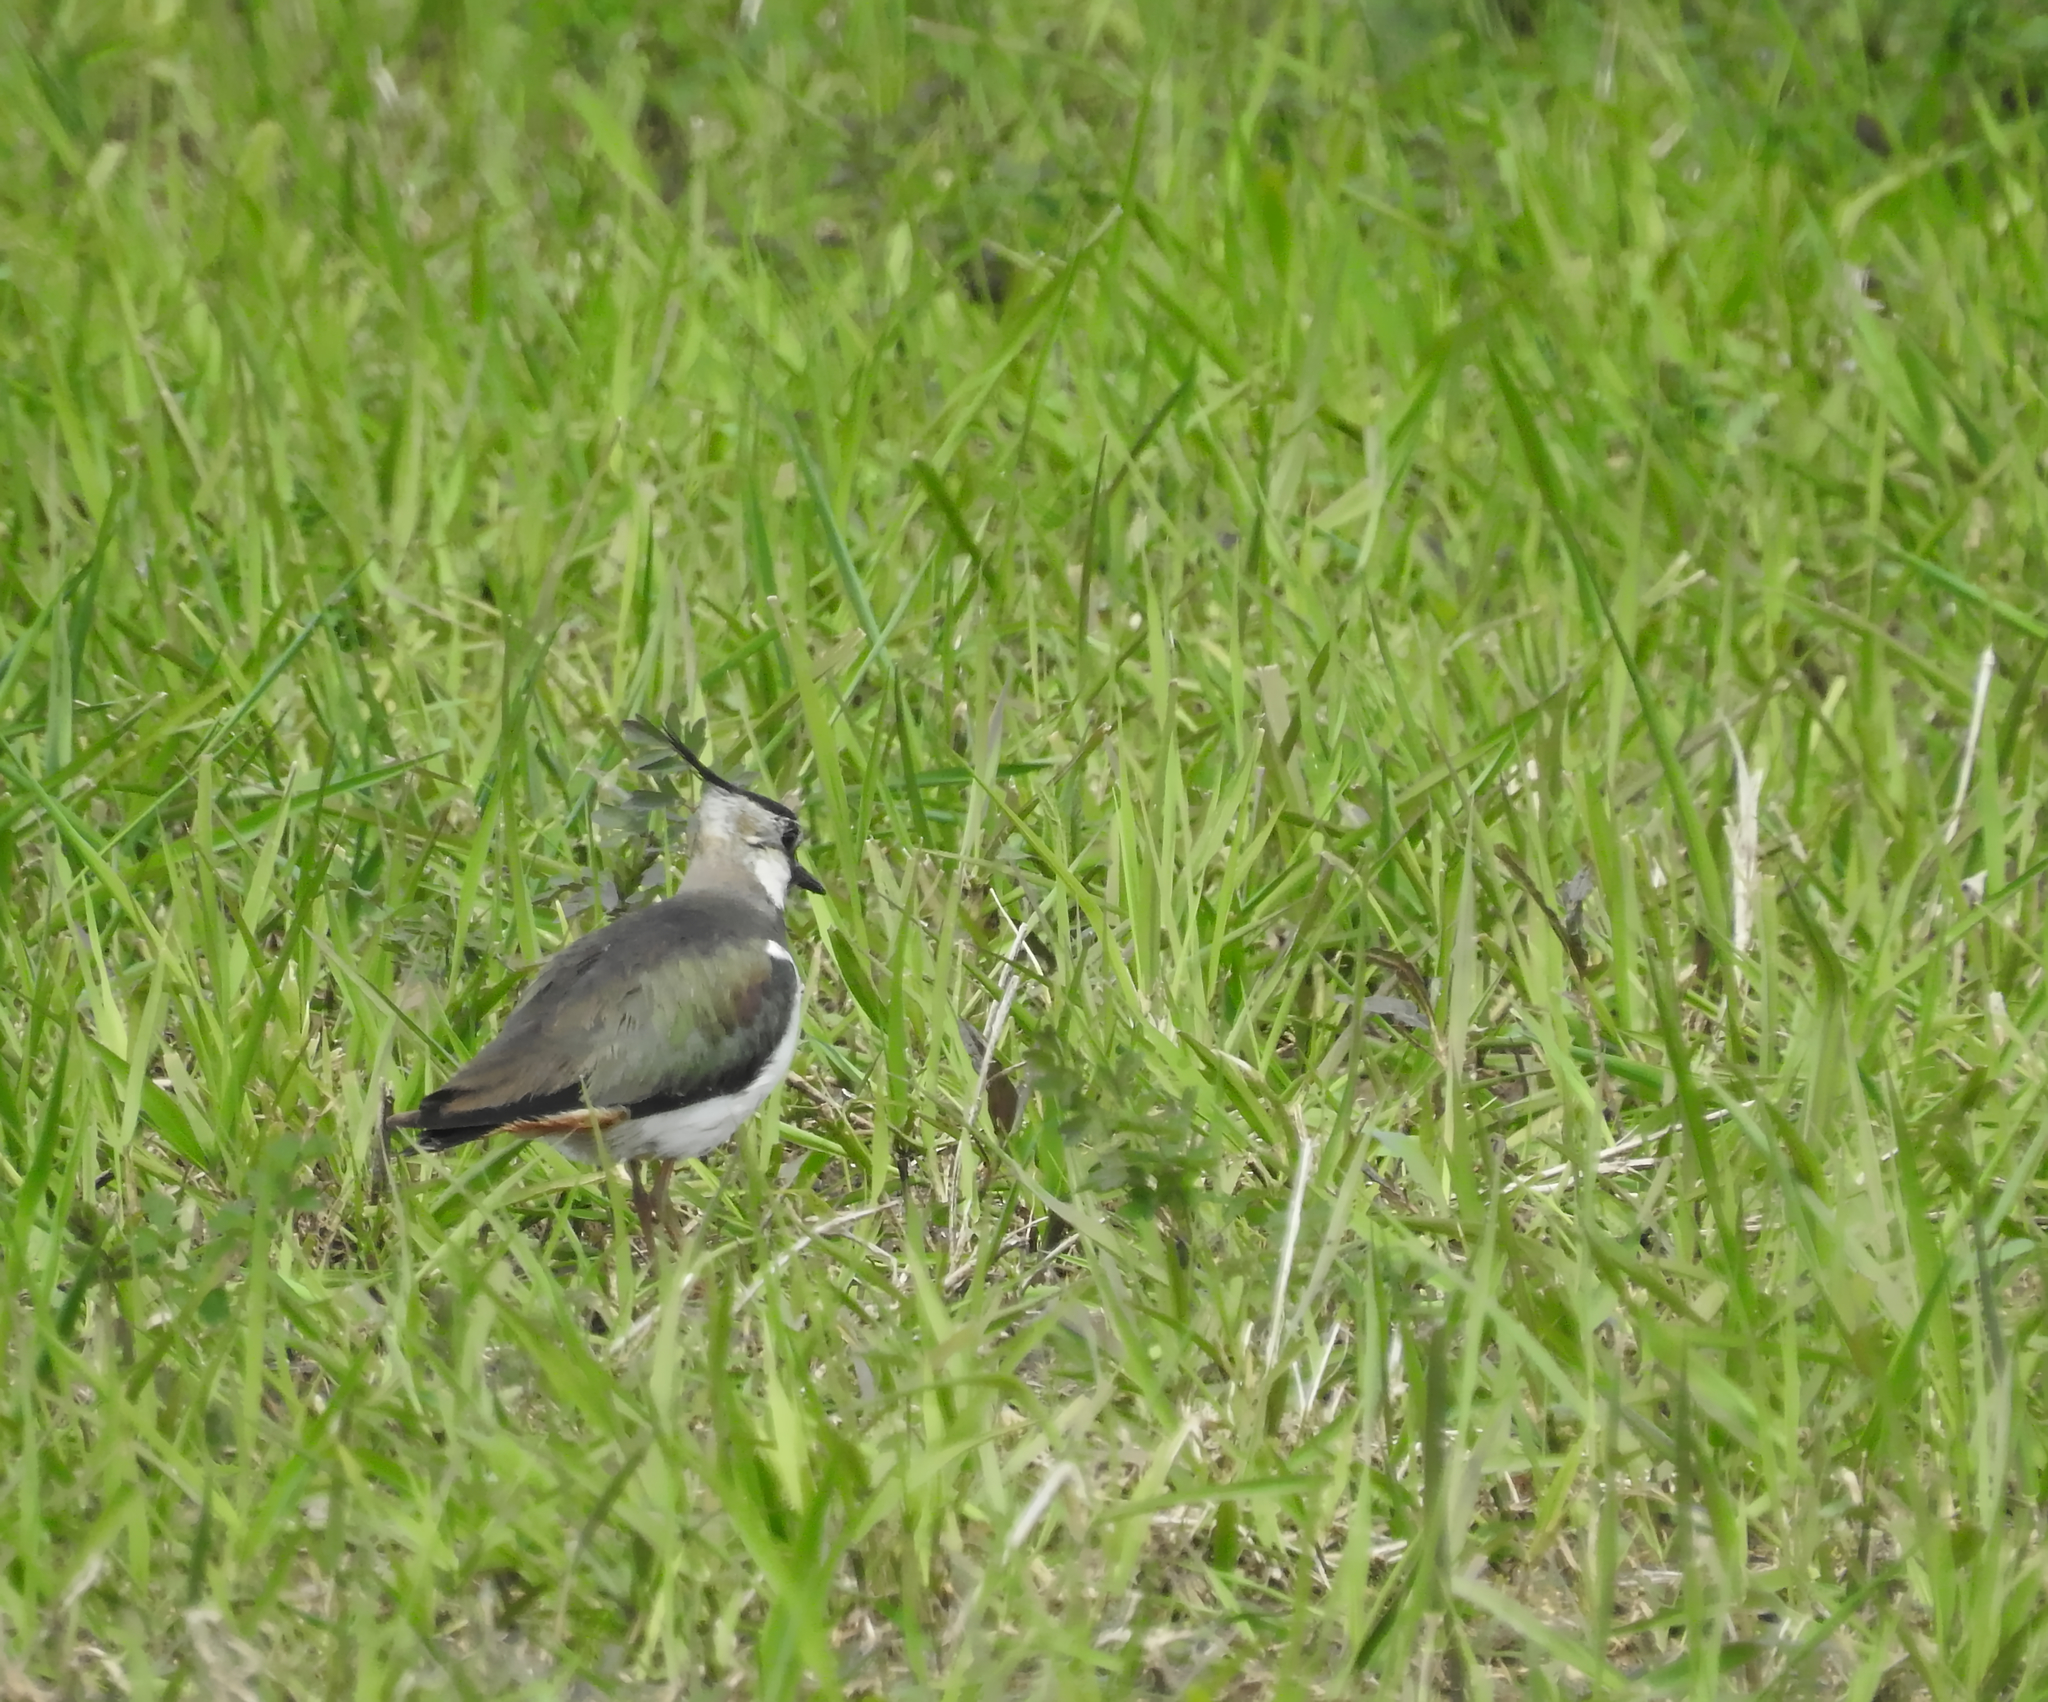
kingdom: Animalia
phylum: Chordata
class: Aves
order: Charadriiformes
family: Charadriidae
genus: Vanellus
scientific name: Vanellus vanellus
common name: Northern lapwing
